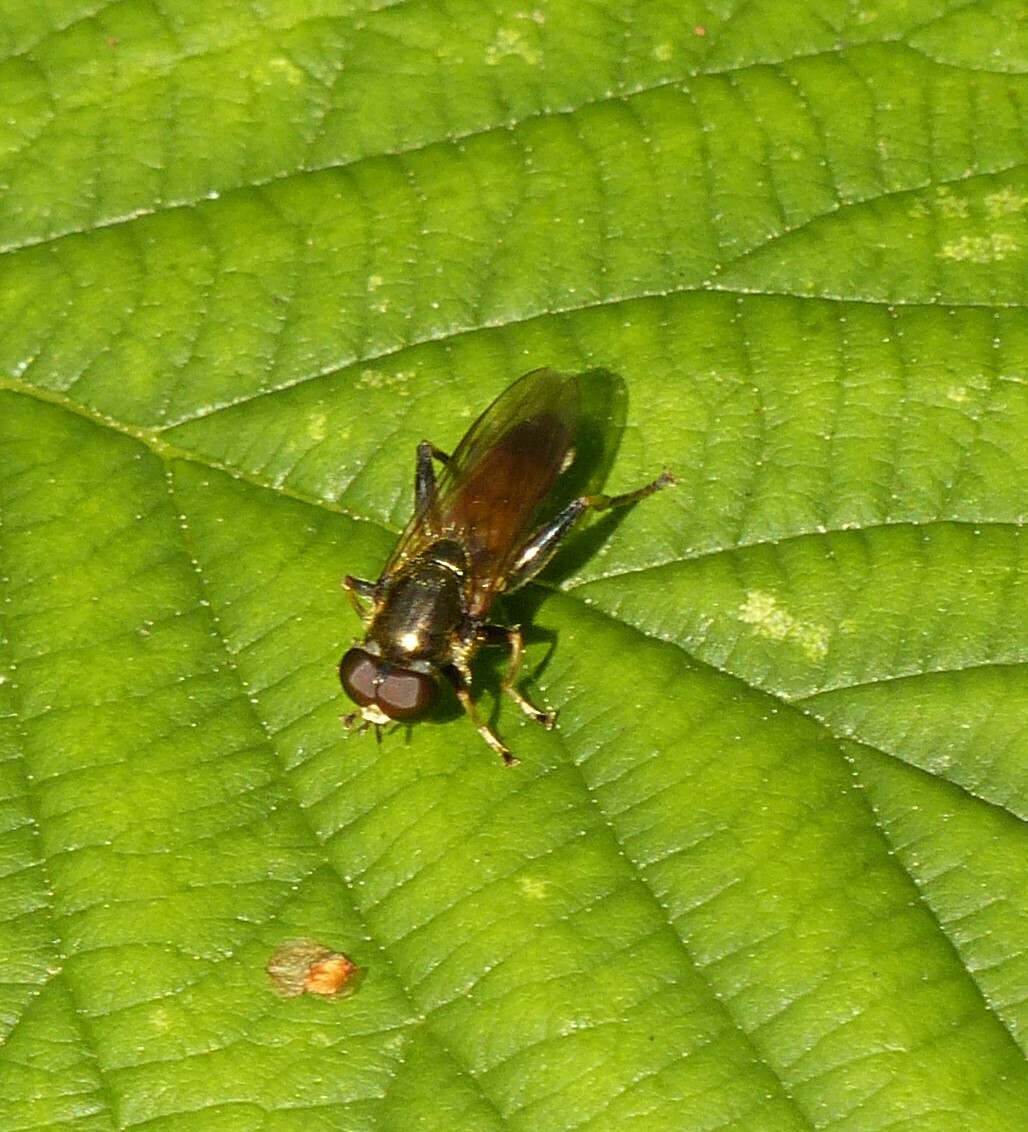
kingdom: Animalia
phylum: Arthropoda
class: Insecta
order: Diptera
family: Syrphidae
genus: Xylota
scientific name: Xylota segnis
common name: Brown-toed forest fly
